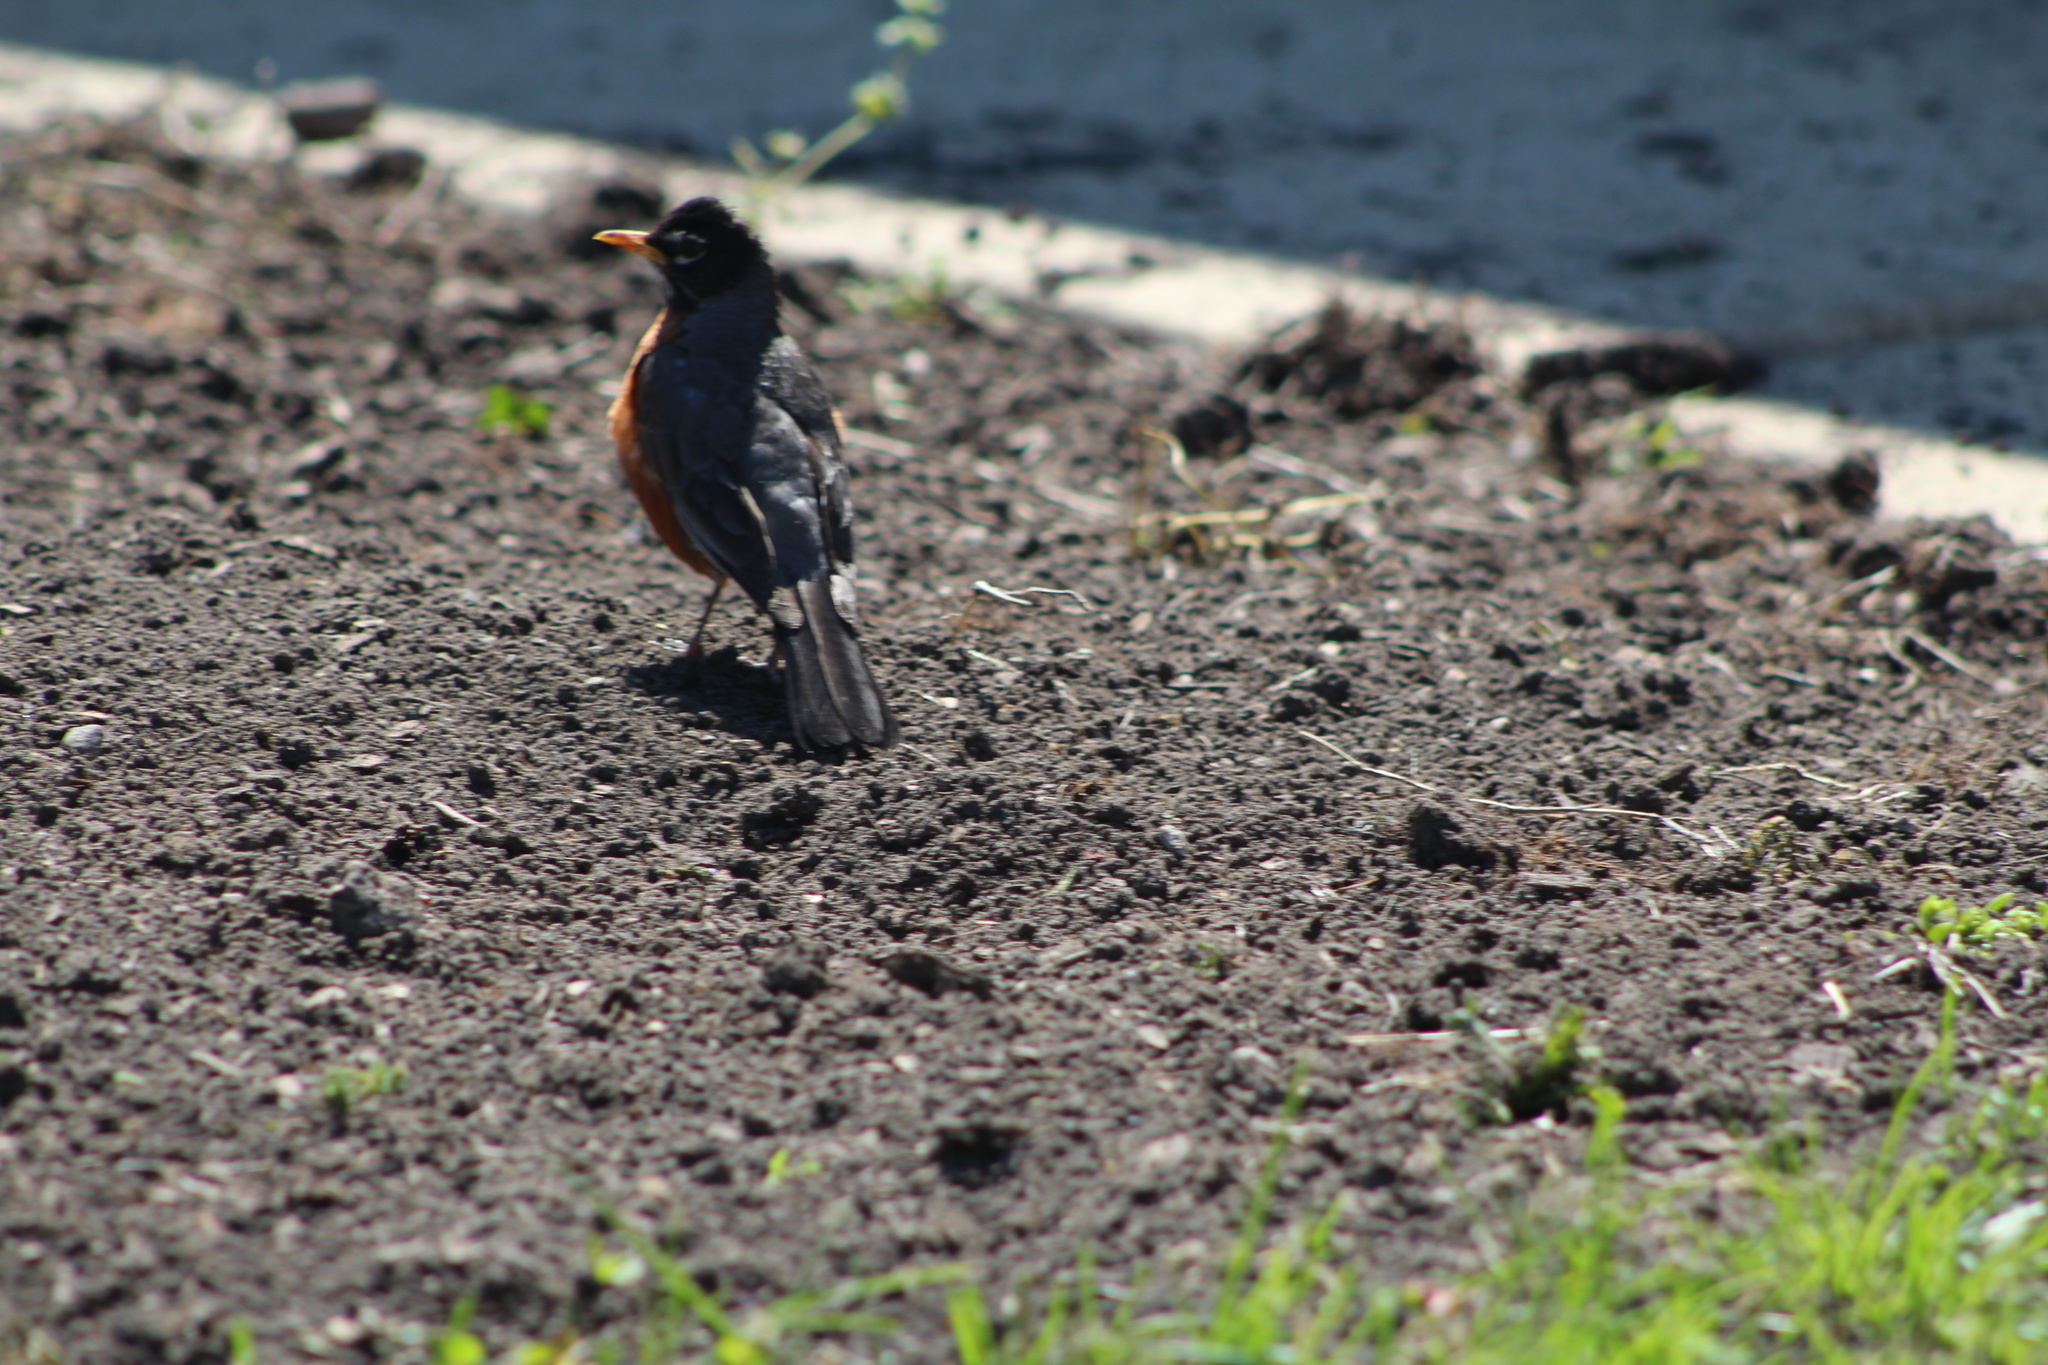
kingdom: Animalia
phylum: Chordata
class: Aves
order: Passeriformes
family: Turdidae
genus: Turdus
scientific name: Turdus migratorius
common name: American robin
